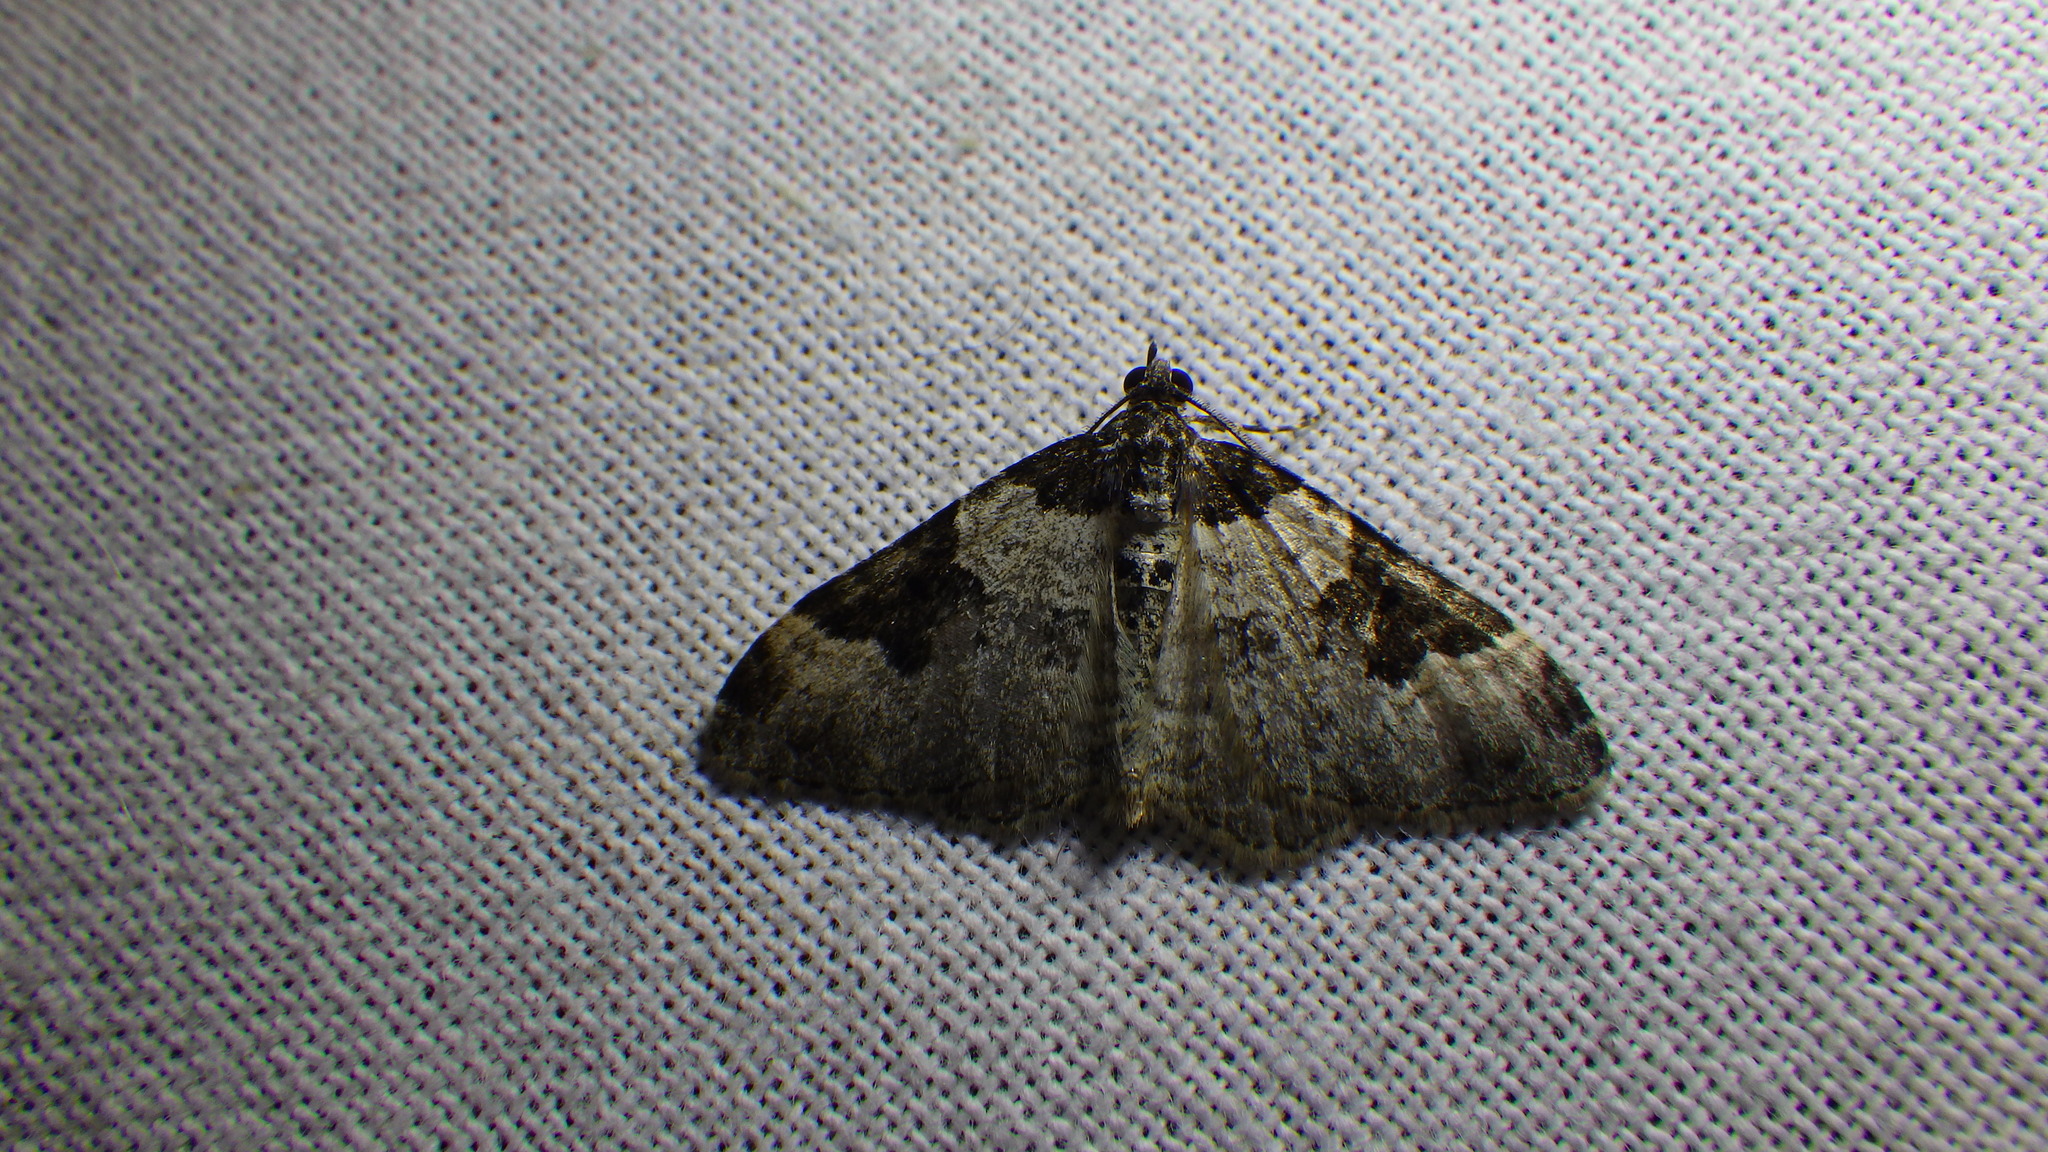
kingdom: Animalia
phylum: Arthropoda
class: Insecta
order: Lepidoptera
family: Geometridae
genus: Xanthorhoe
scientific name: Xanthorhoe fluctuata
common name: Garden carpet
